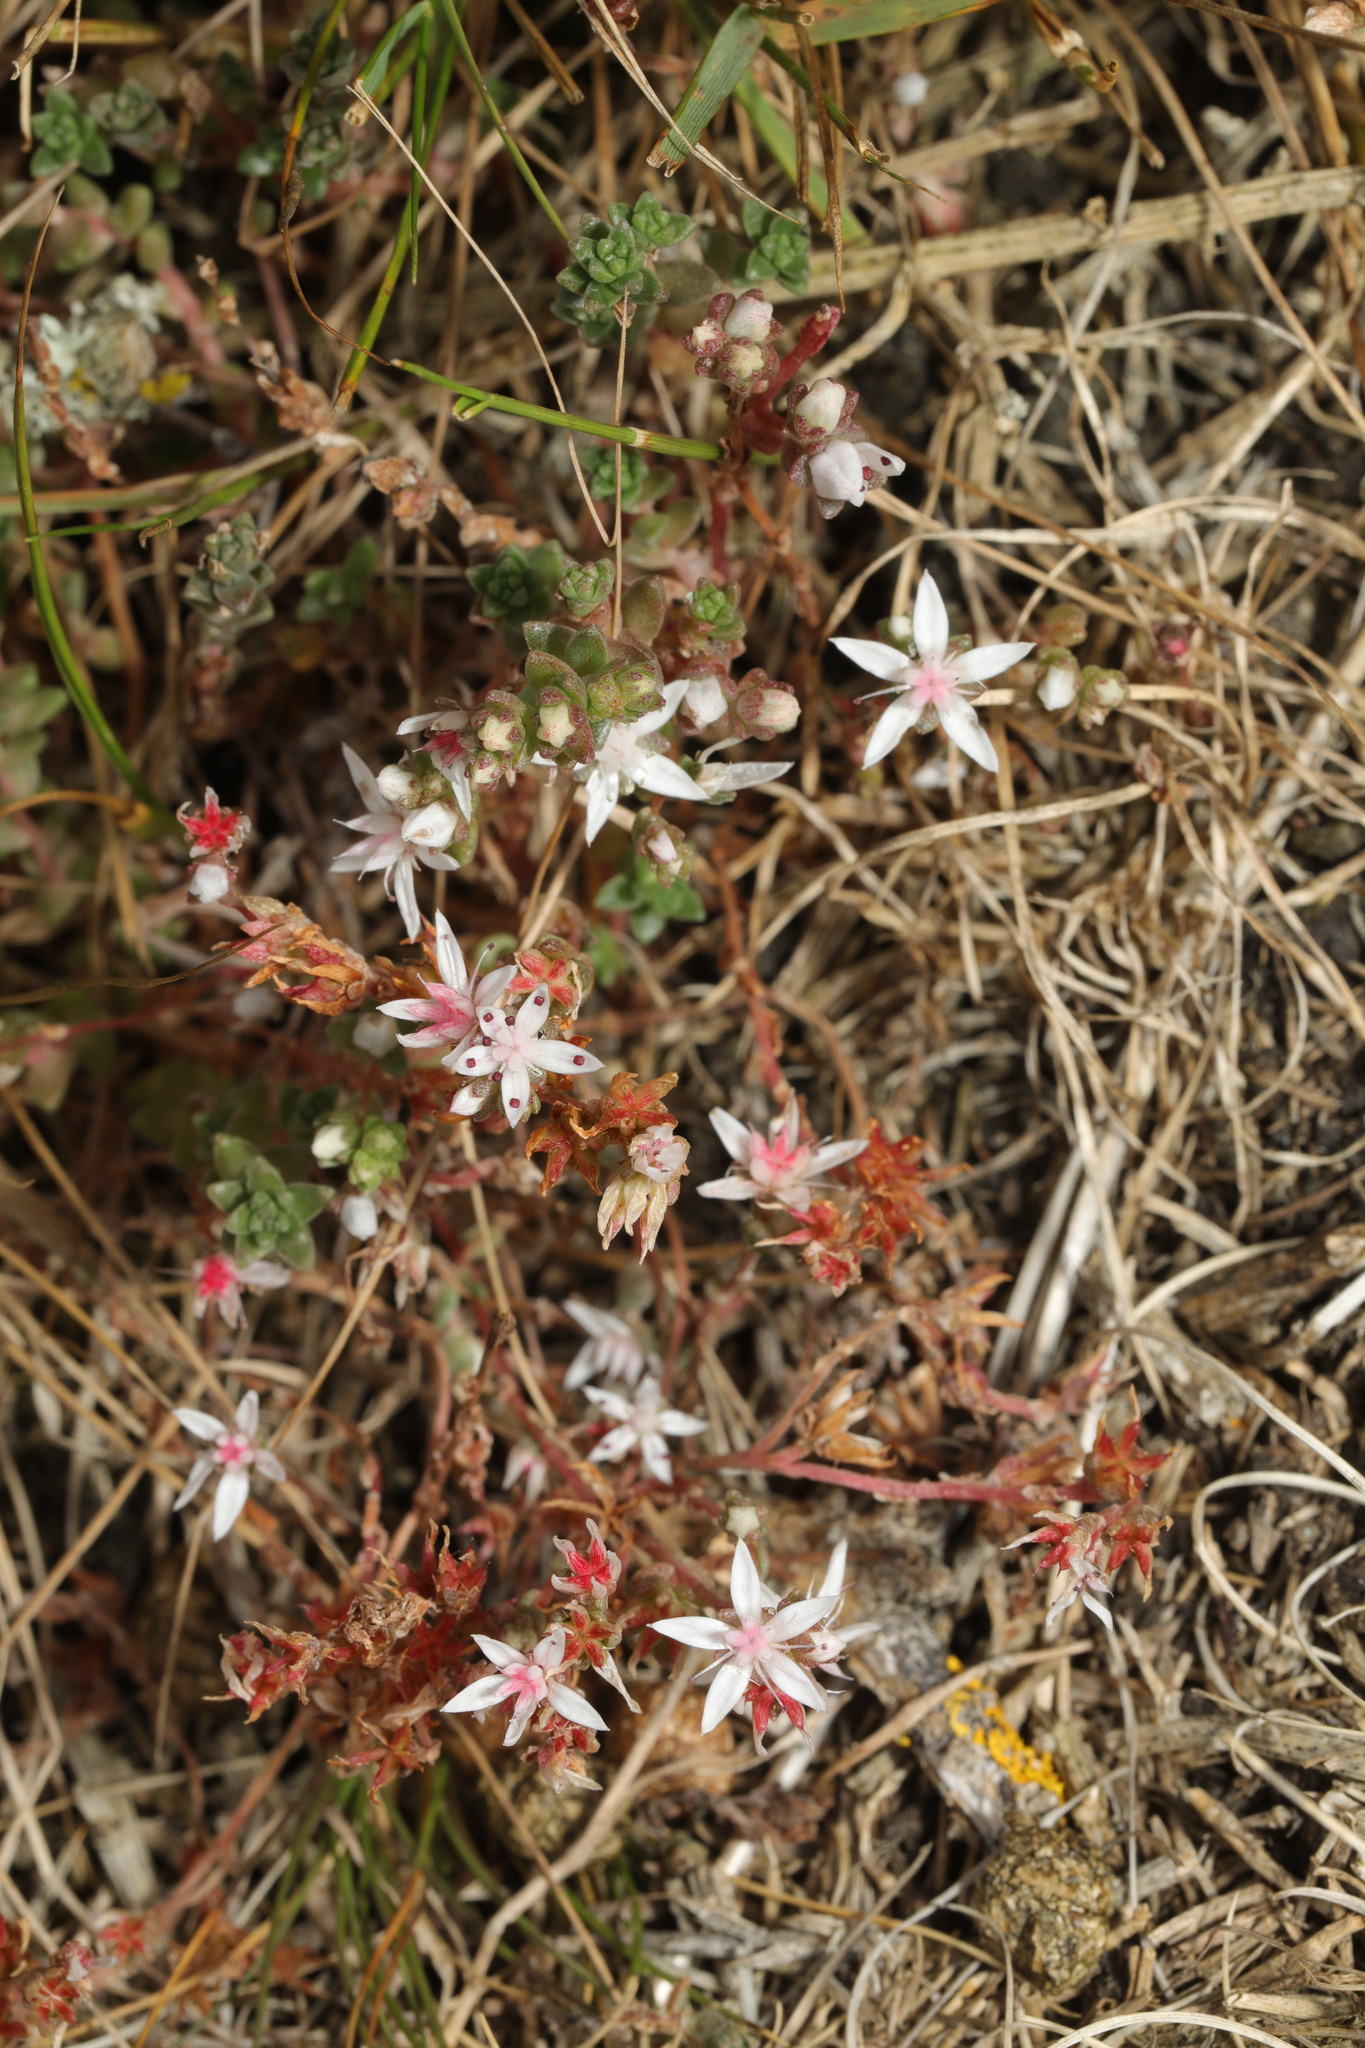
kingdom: Plantae
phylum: Tracheophyta
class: Magnoliopsida
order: Saxifragales
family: Crassulaceae
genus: Sedum
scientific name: Sedum anglicum
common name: English stonecrop
